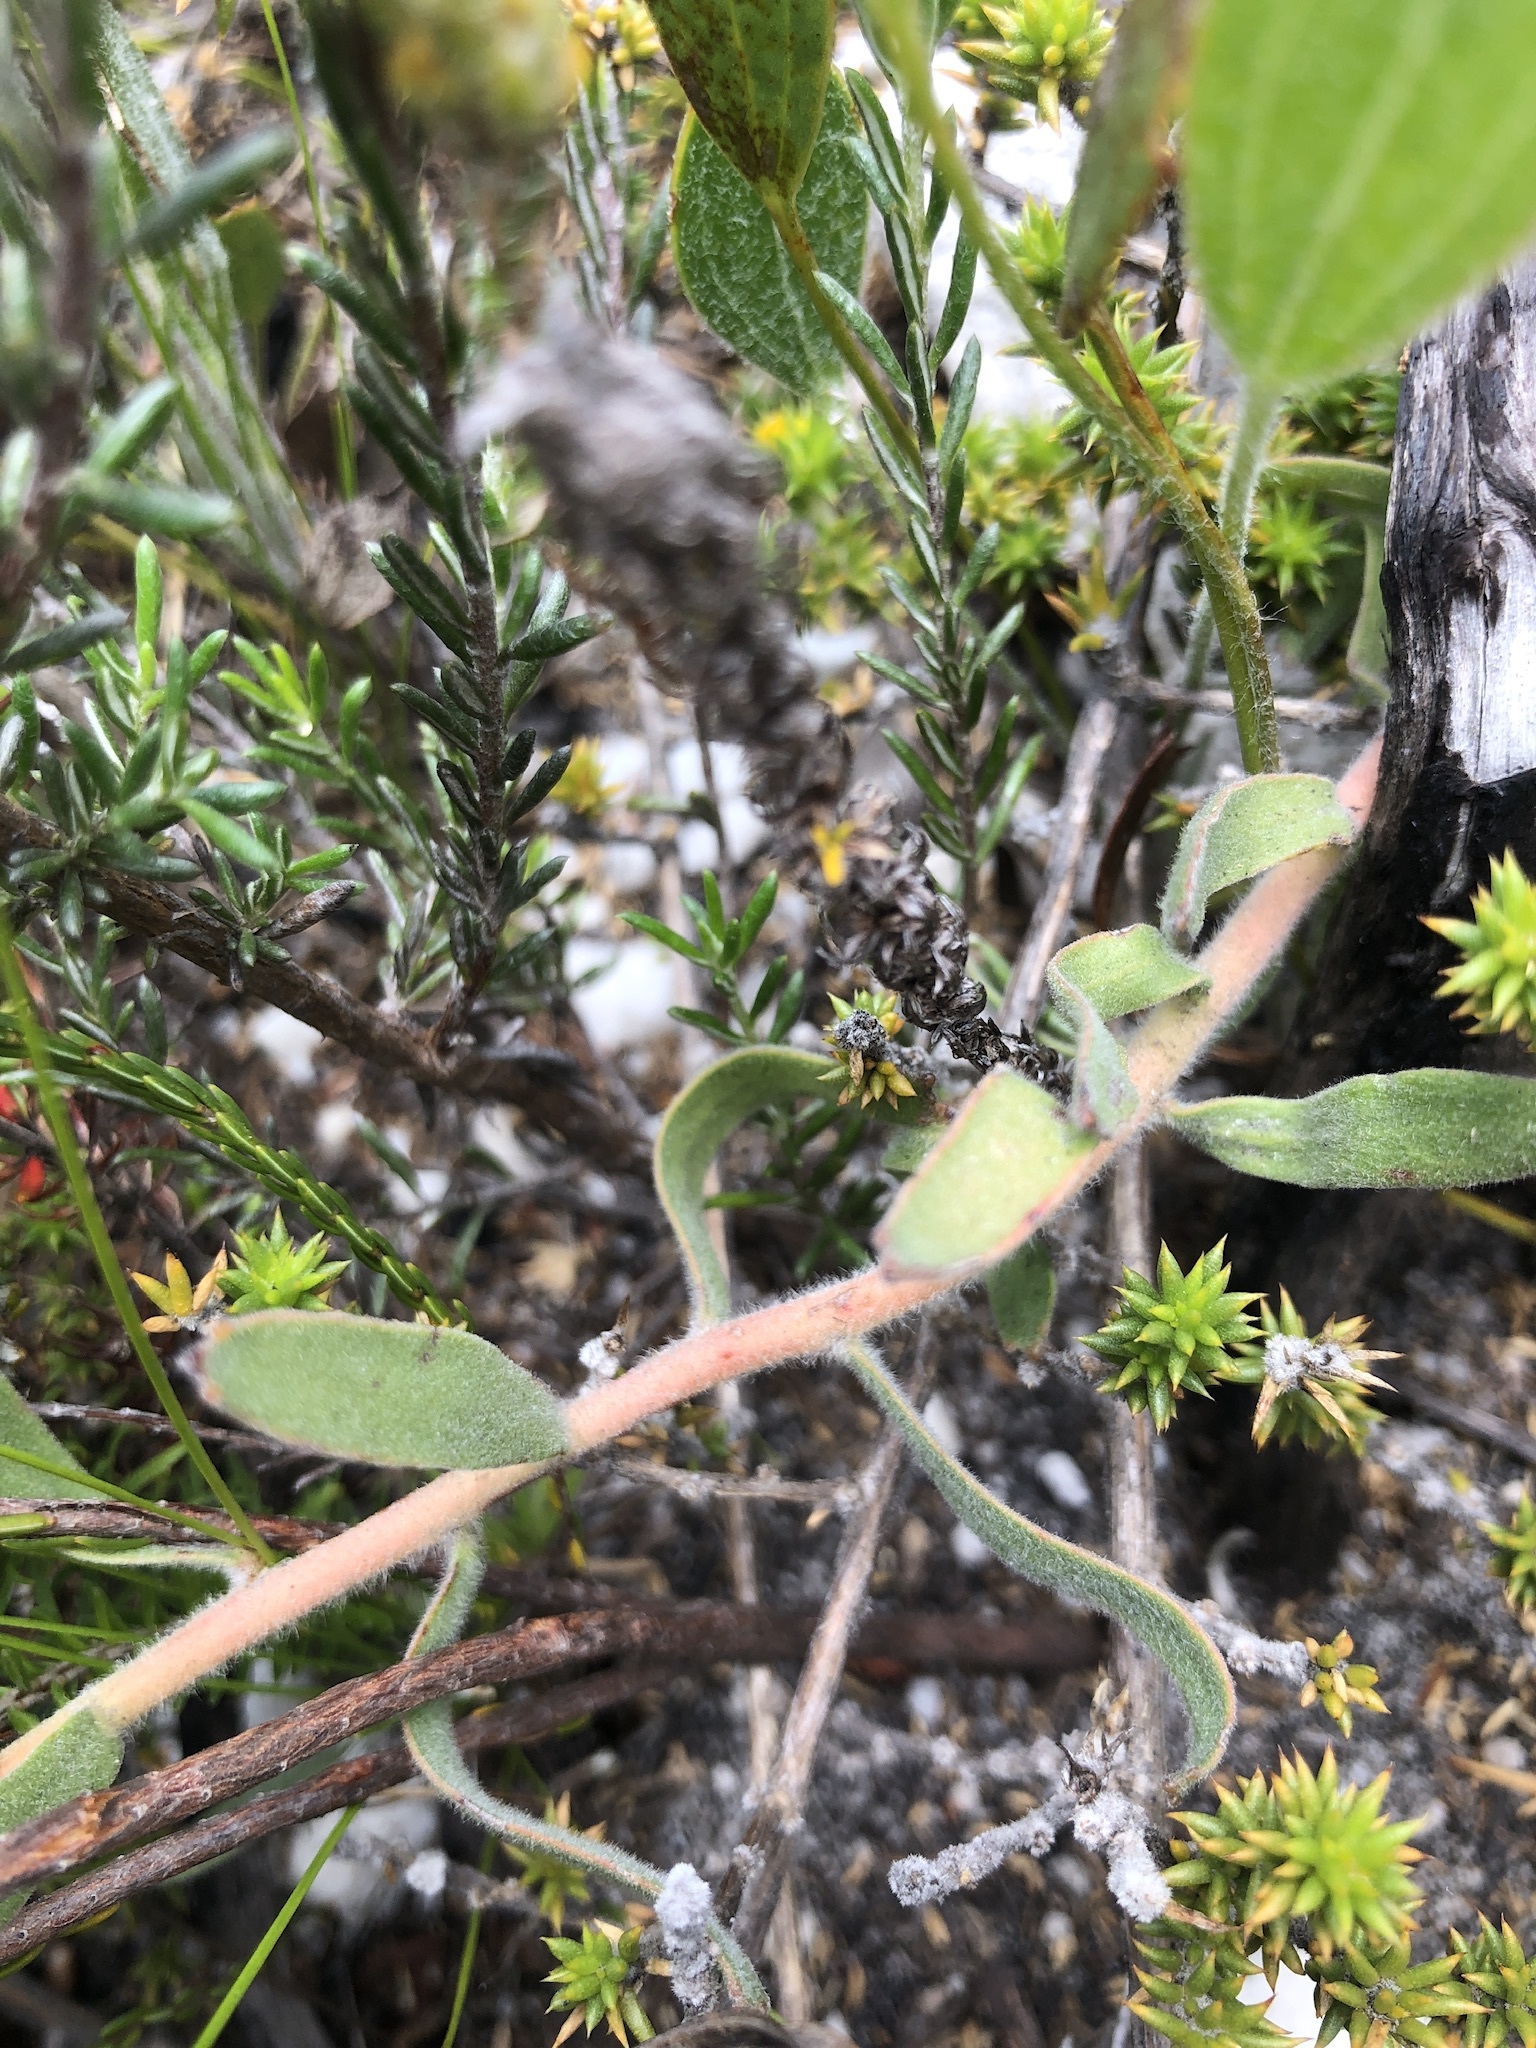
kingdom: Plantae
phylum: Tracheophyta
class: Magnoliopsida
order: Proteales
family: Proteaceae
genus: Leucospermum
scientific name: Leucospermum pedunculatum
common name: White-trailing pincushion
